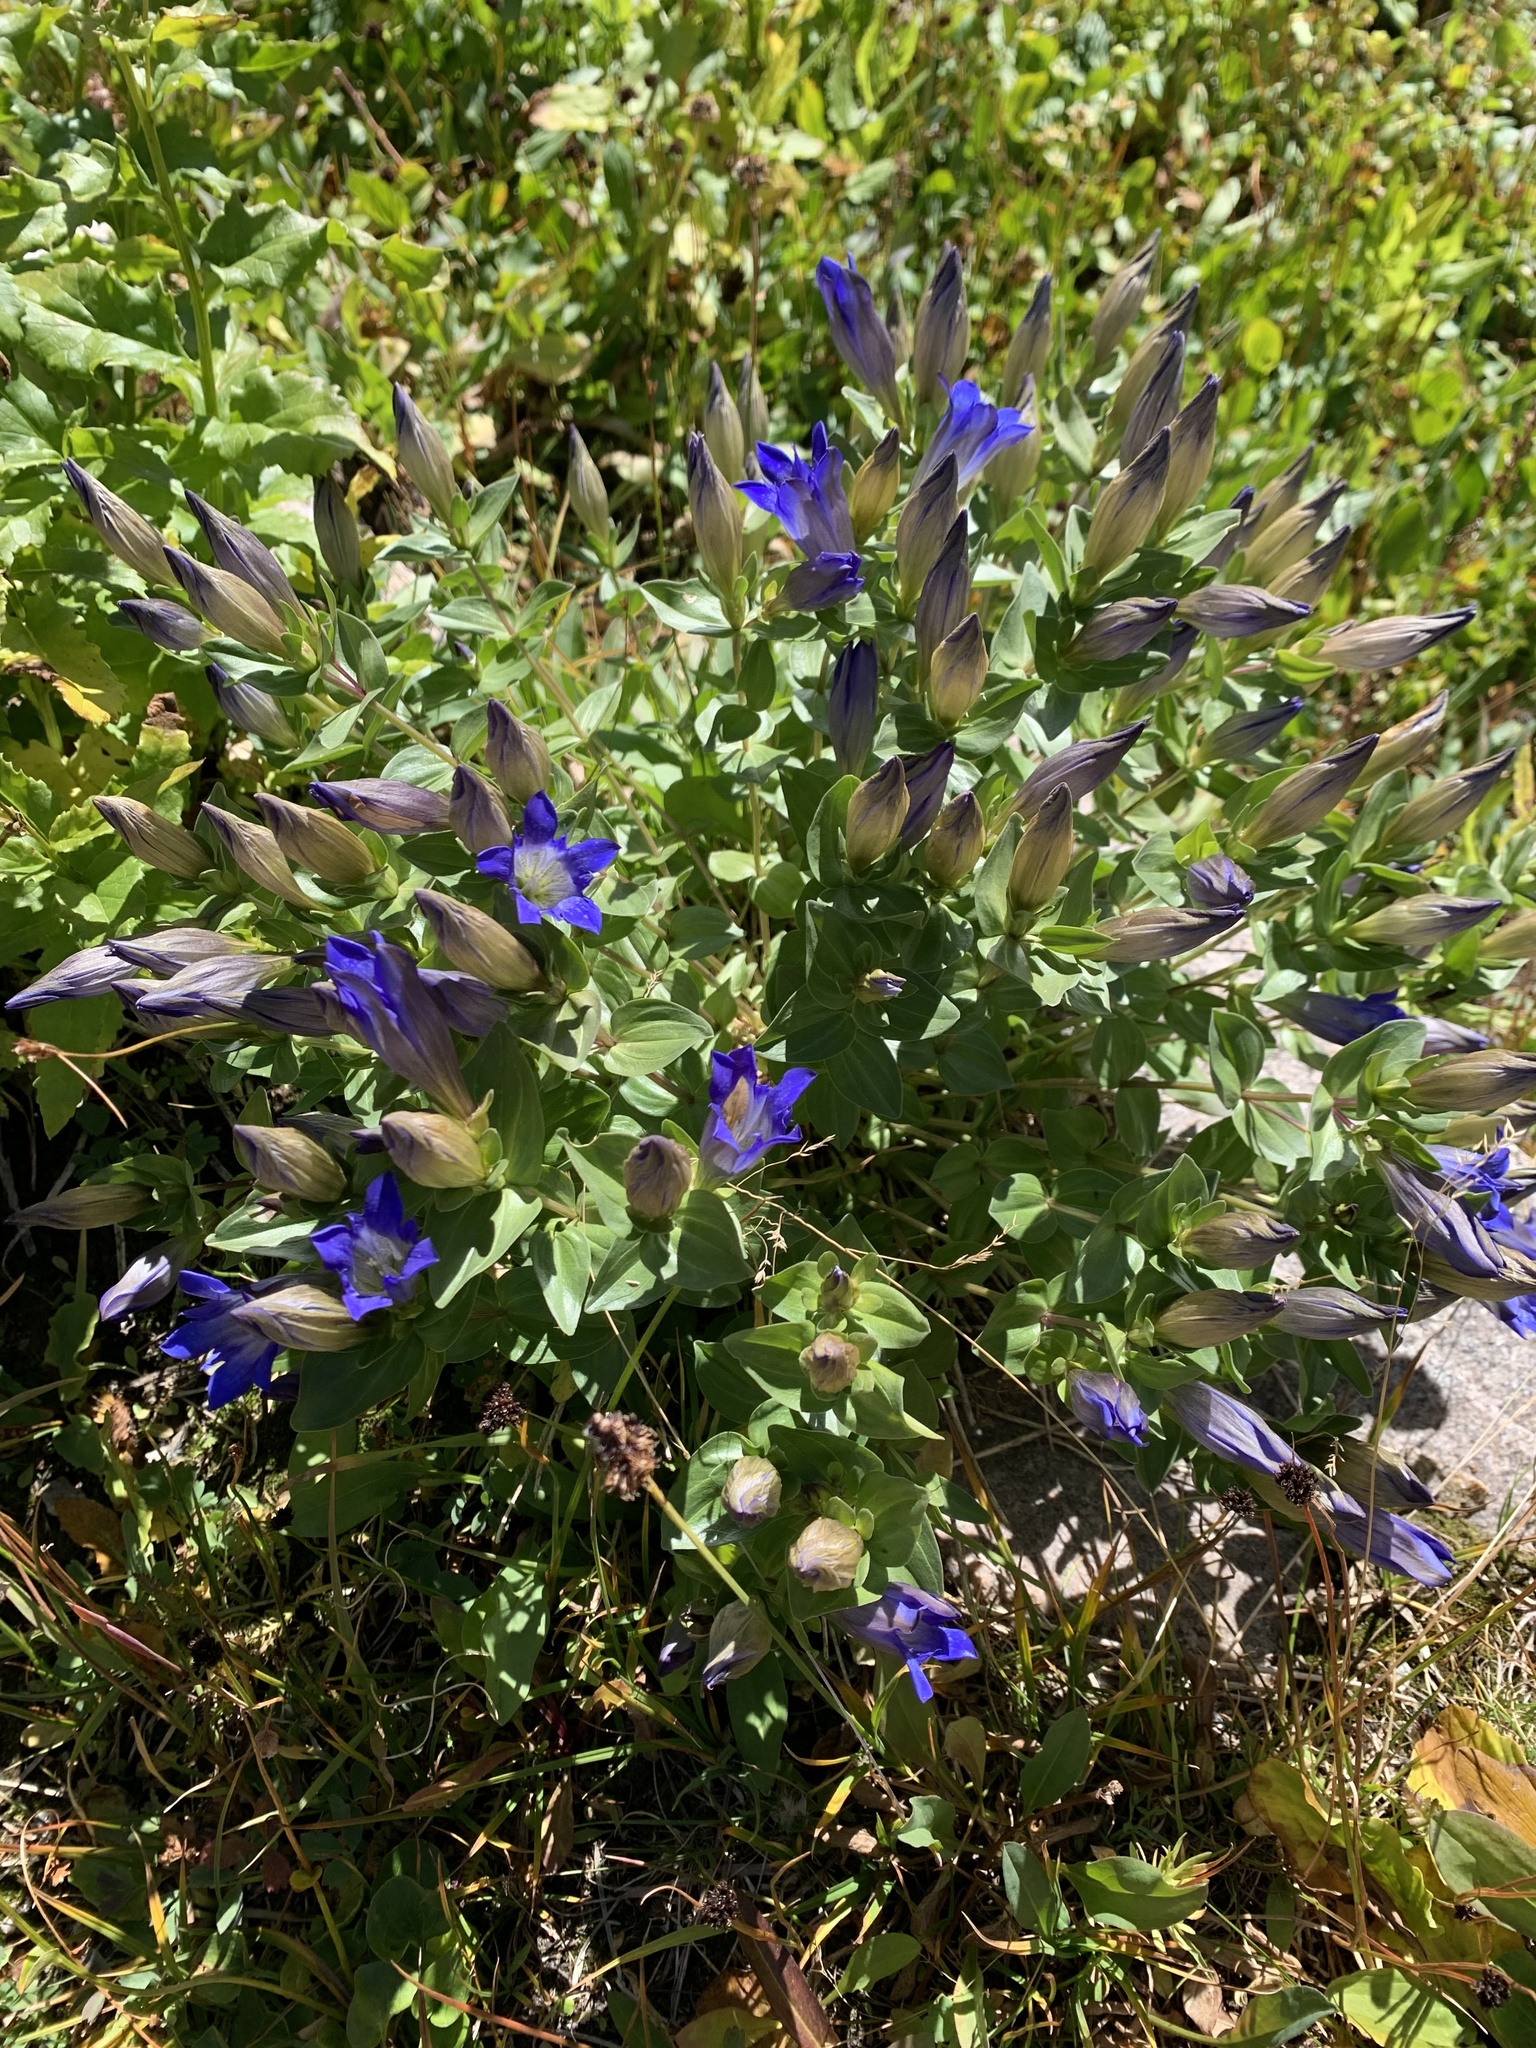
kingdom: Plantae
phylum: Tracheophyta
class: Magnoliopsida
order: Gentianales
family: Gentianaceae
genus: Gentiana
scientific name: Gentiana calycosa
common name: Rainier pleated gentian
